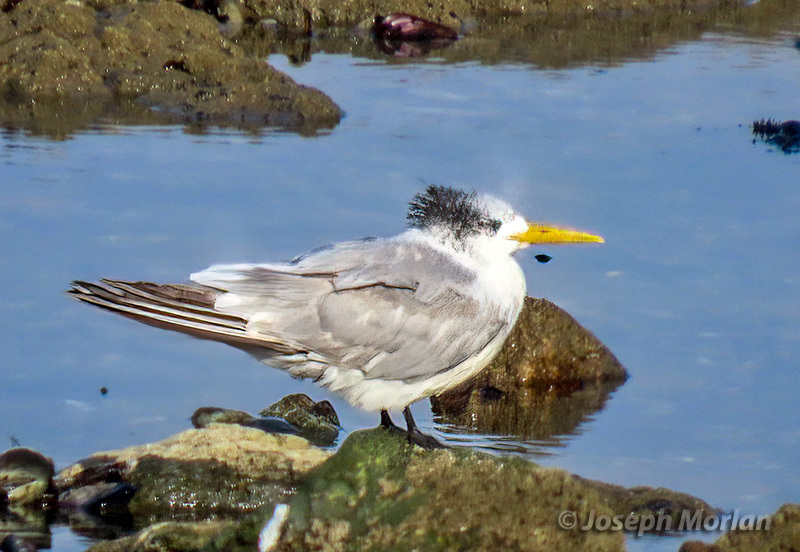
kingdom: Animalia
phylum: Chordata
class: Aves
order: Charadriiformes
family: Laridae
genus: Thalasseus
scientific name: Thalasseus bergii
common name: Greater crested tern
